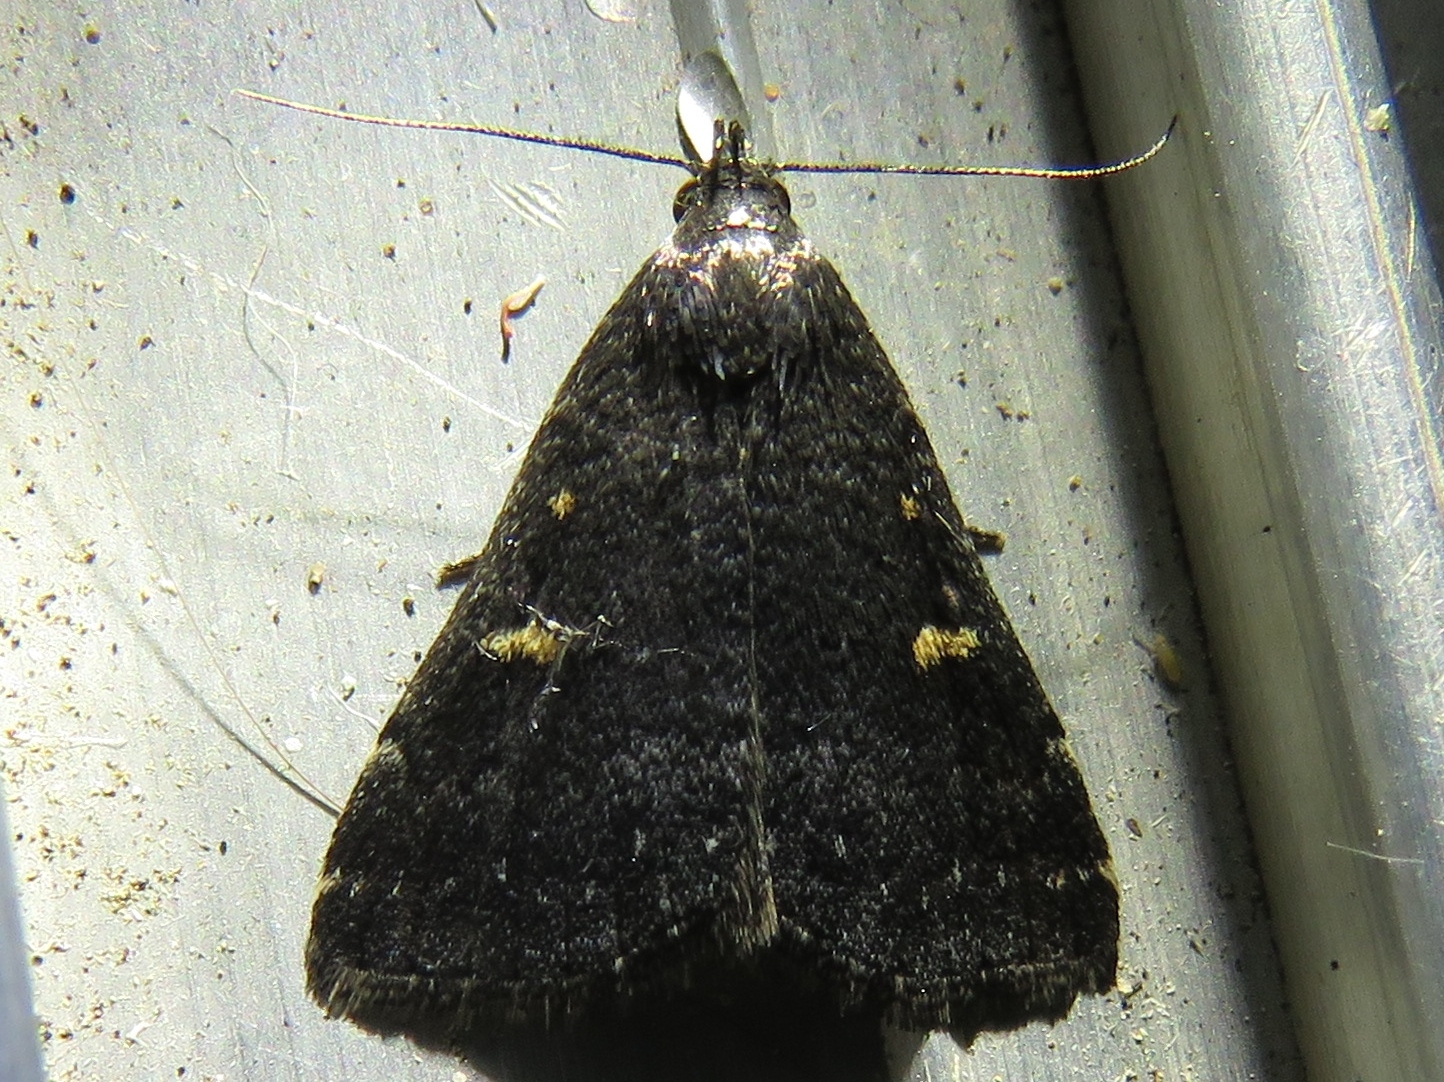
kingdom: Animalia
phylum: Arthropoda
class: Insecta
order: Lepidoptera
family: Erebidae
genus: Tetanolita
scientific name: Tetanolita mynesalis
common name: Smoky tetanolita moth
